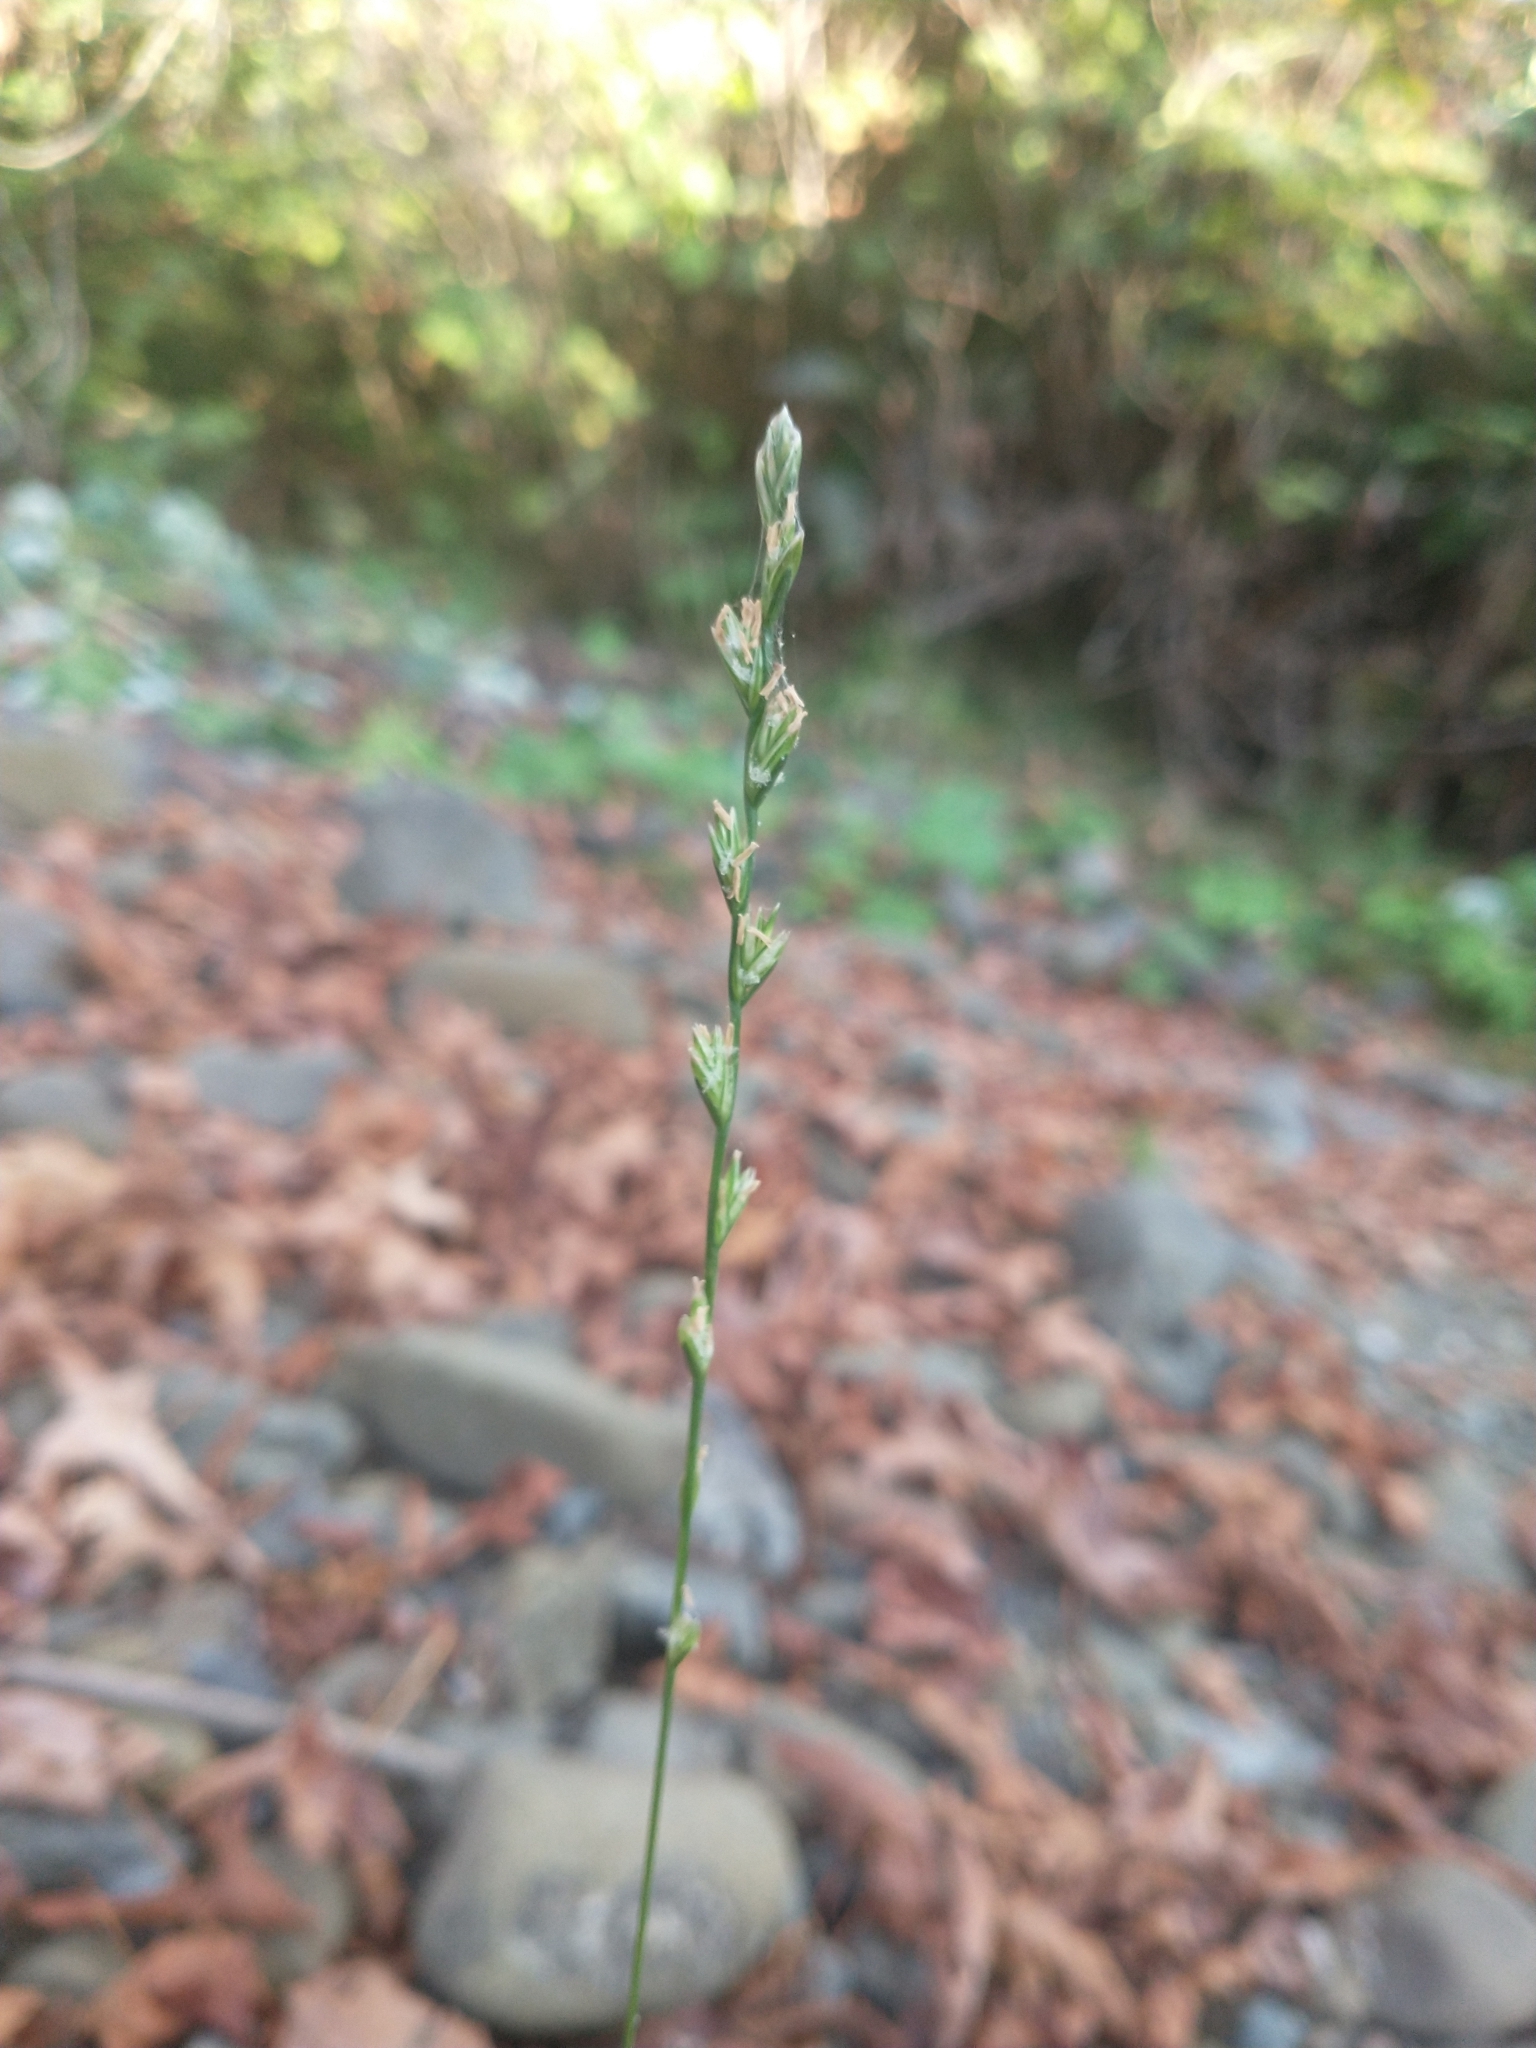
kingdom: Plantae
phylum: Tracheophyta
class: Liliopsida
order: Poales
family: Poaceae
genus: Lolium
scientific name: Lolium perenne
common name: Perennial ryegrass
